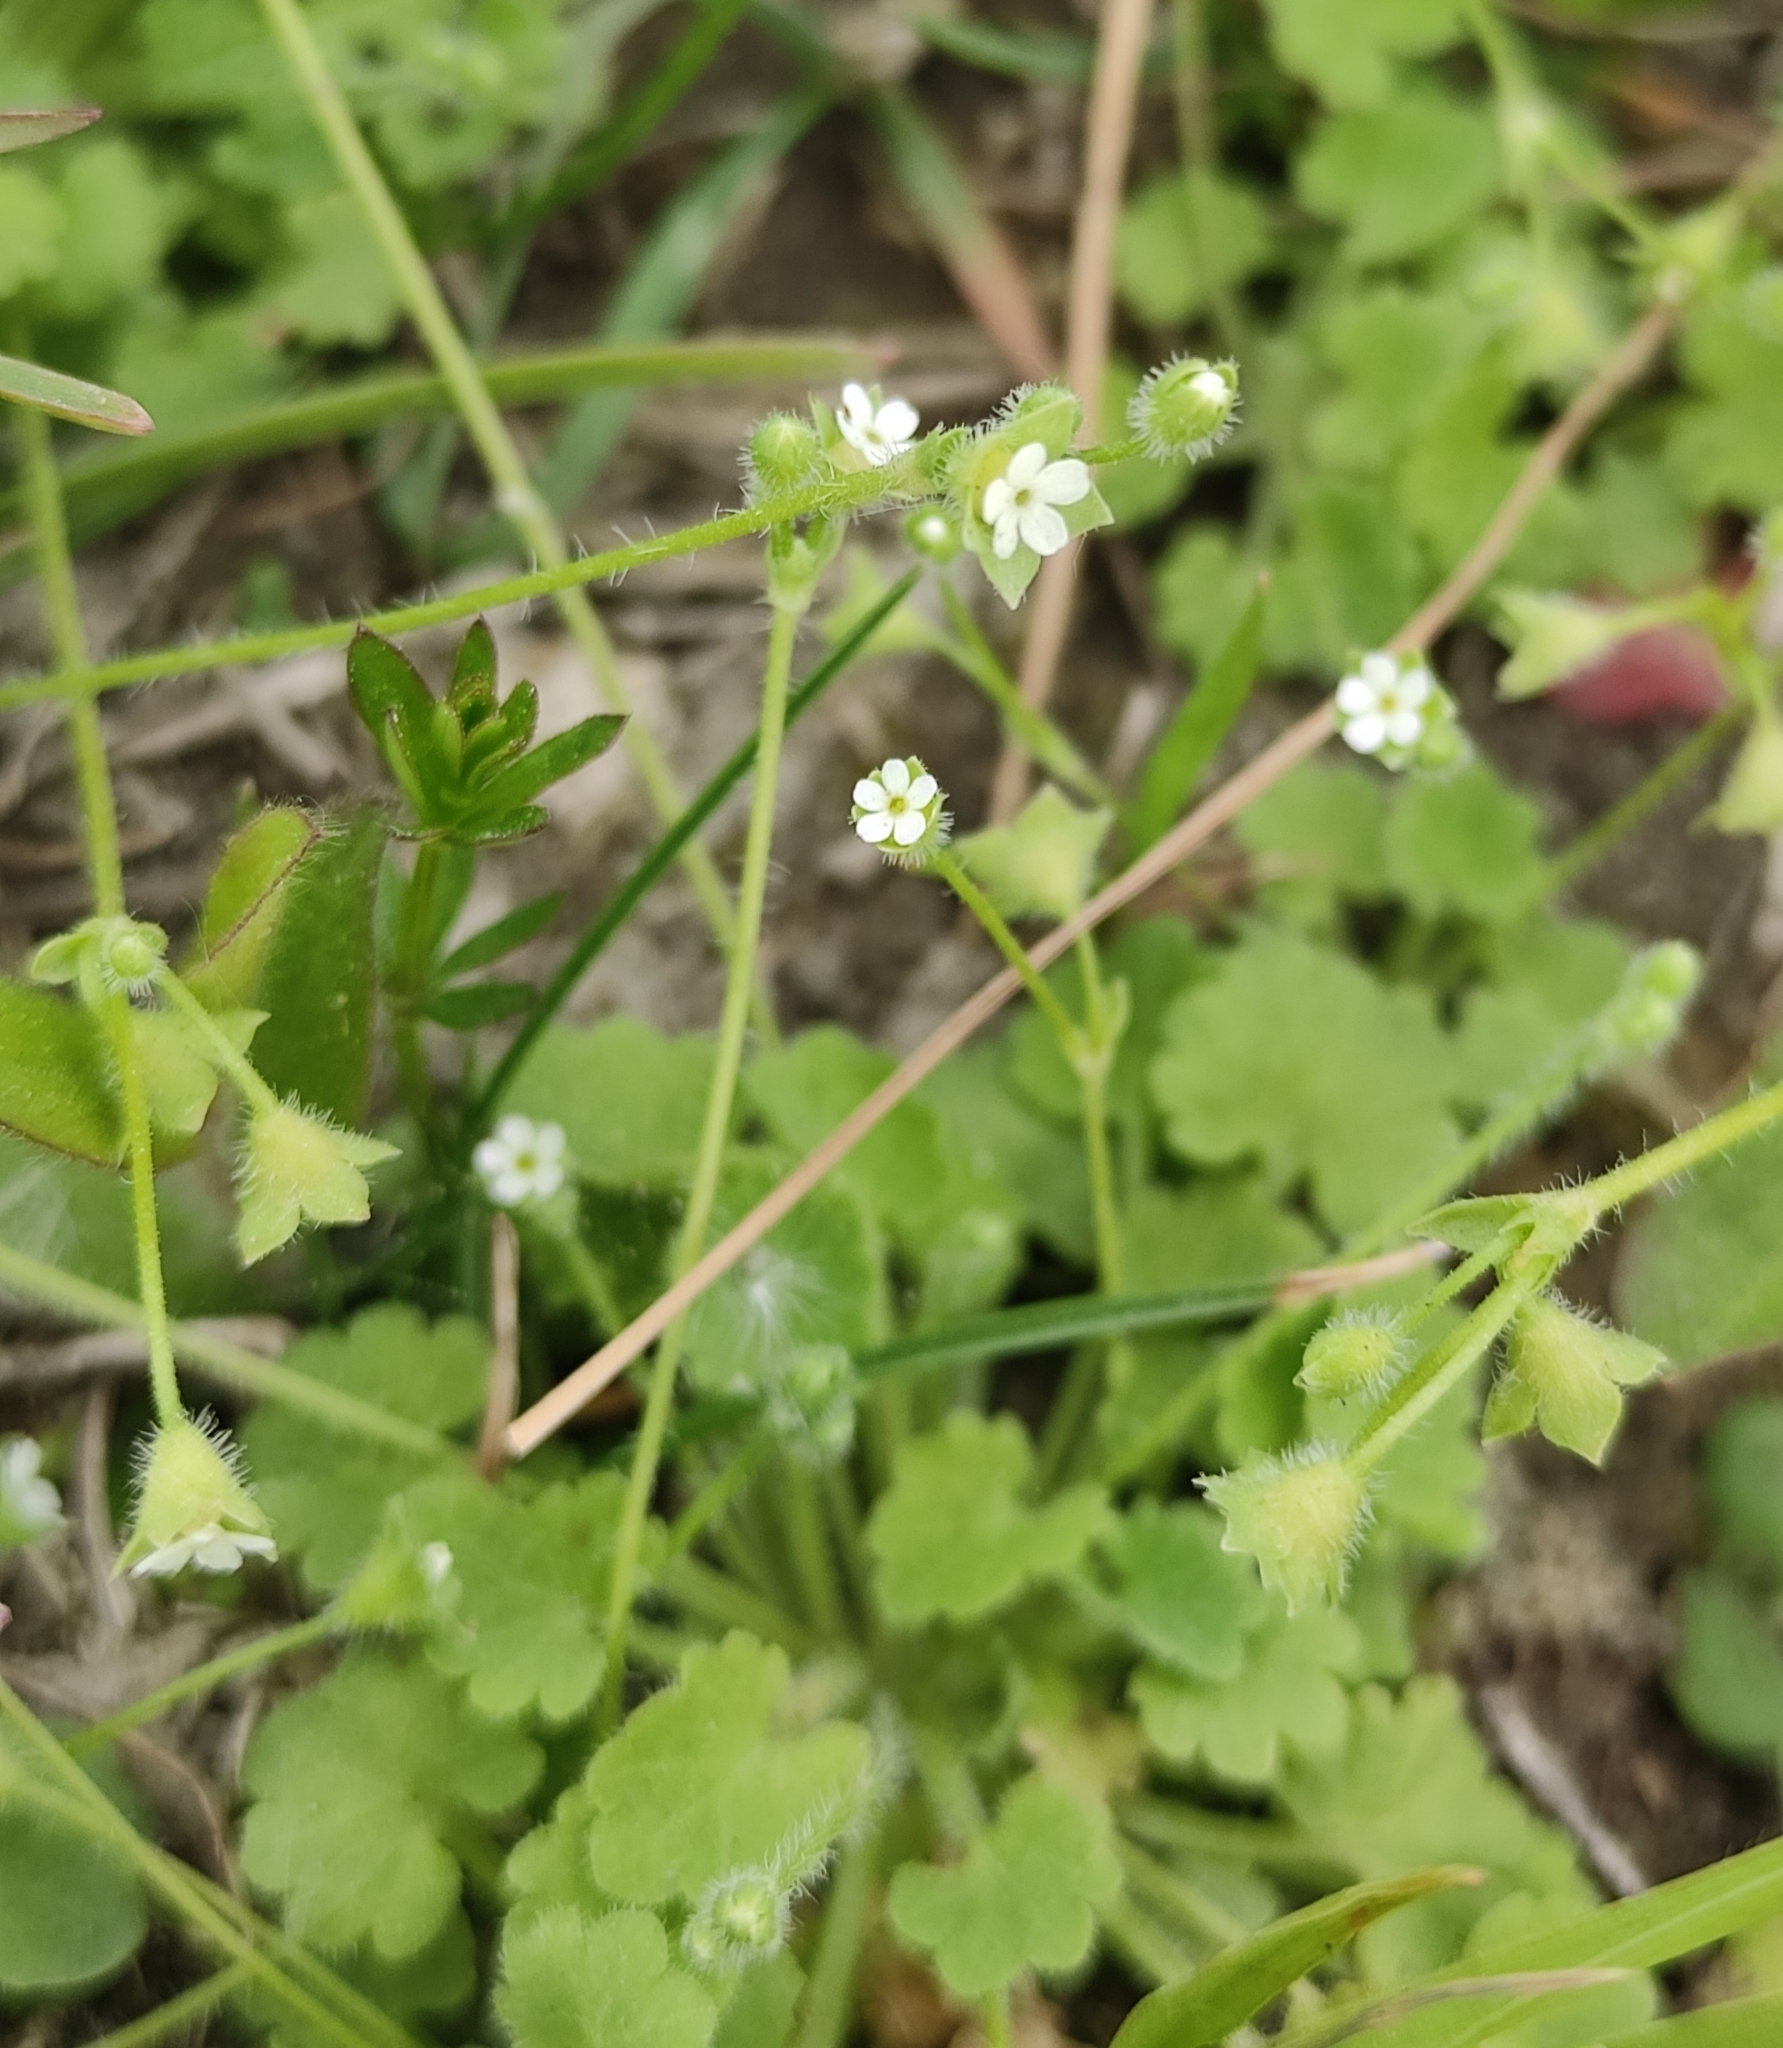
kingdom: Plantae
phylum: Tracheophyta
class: Magnoliopsida
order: Ericales
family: Primulaceae
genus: Androsace
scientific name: Androsace gmelinii
